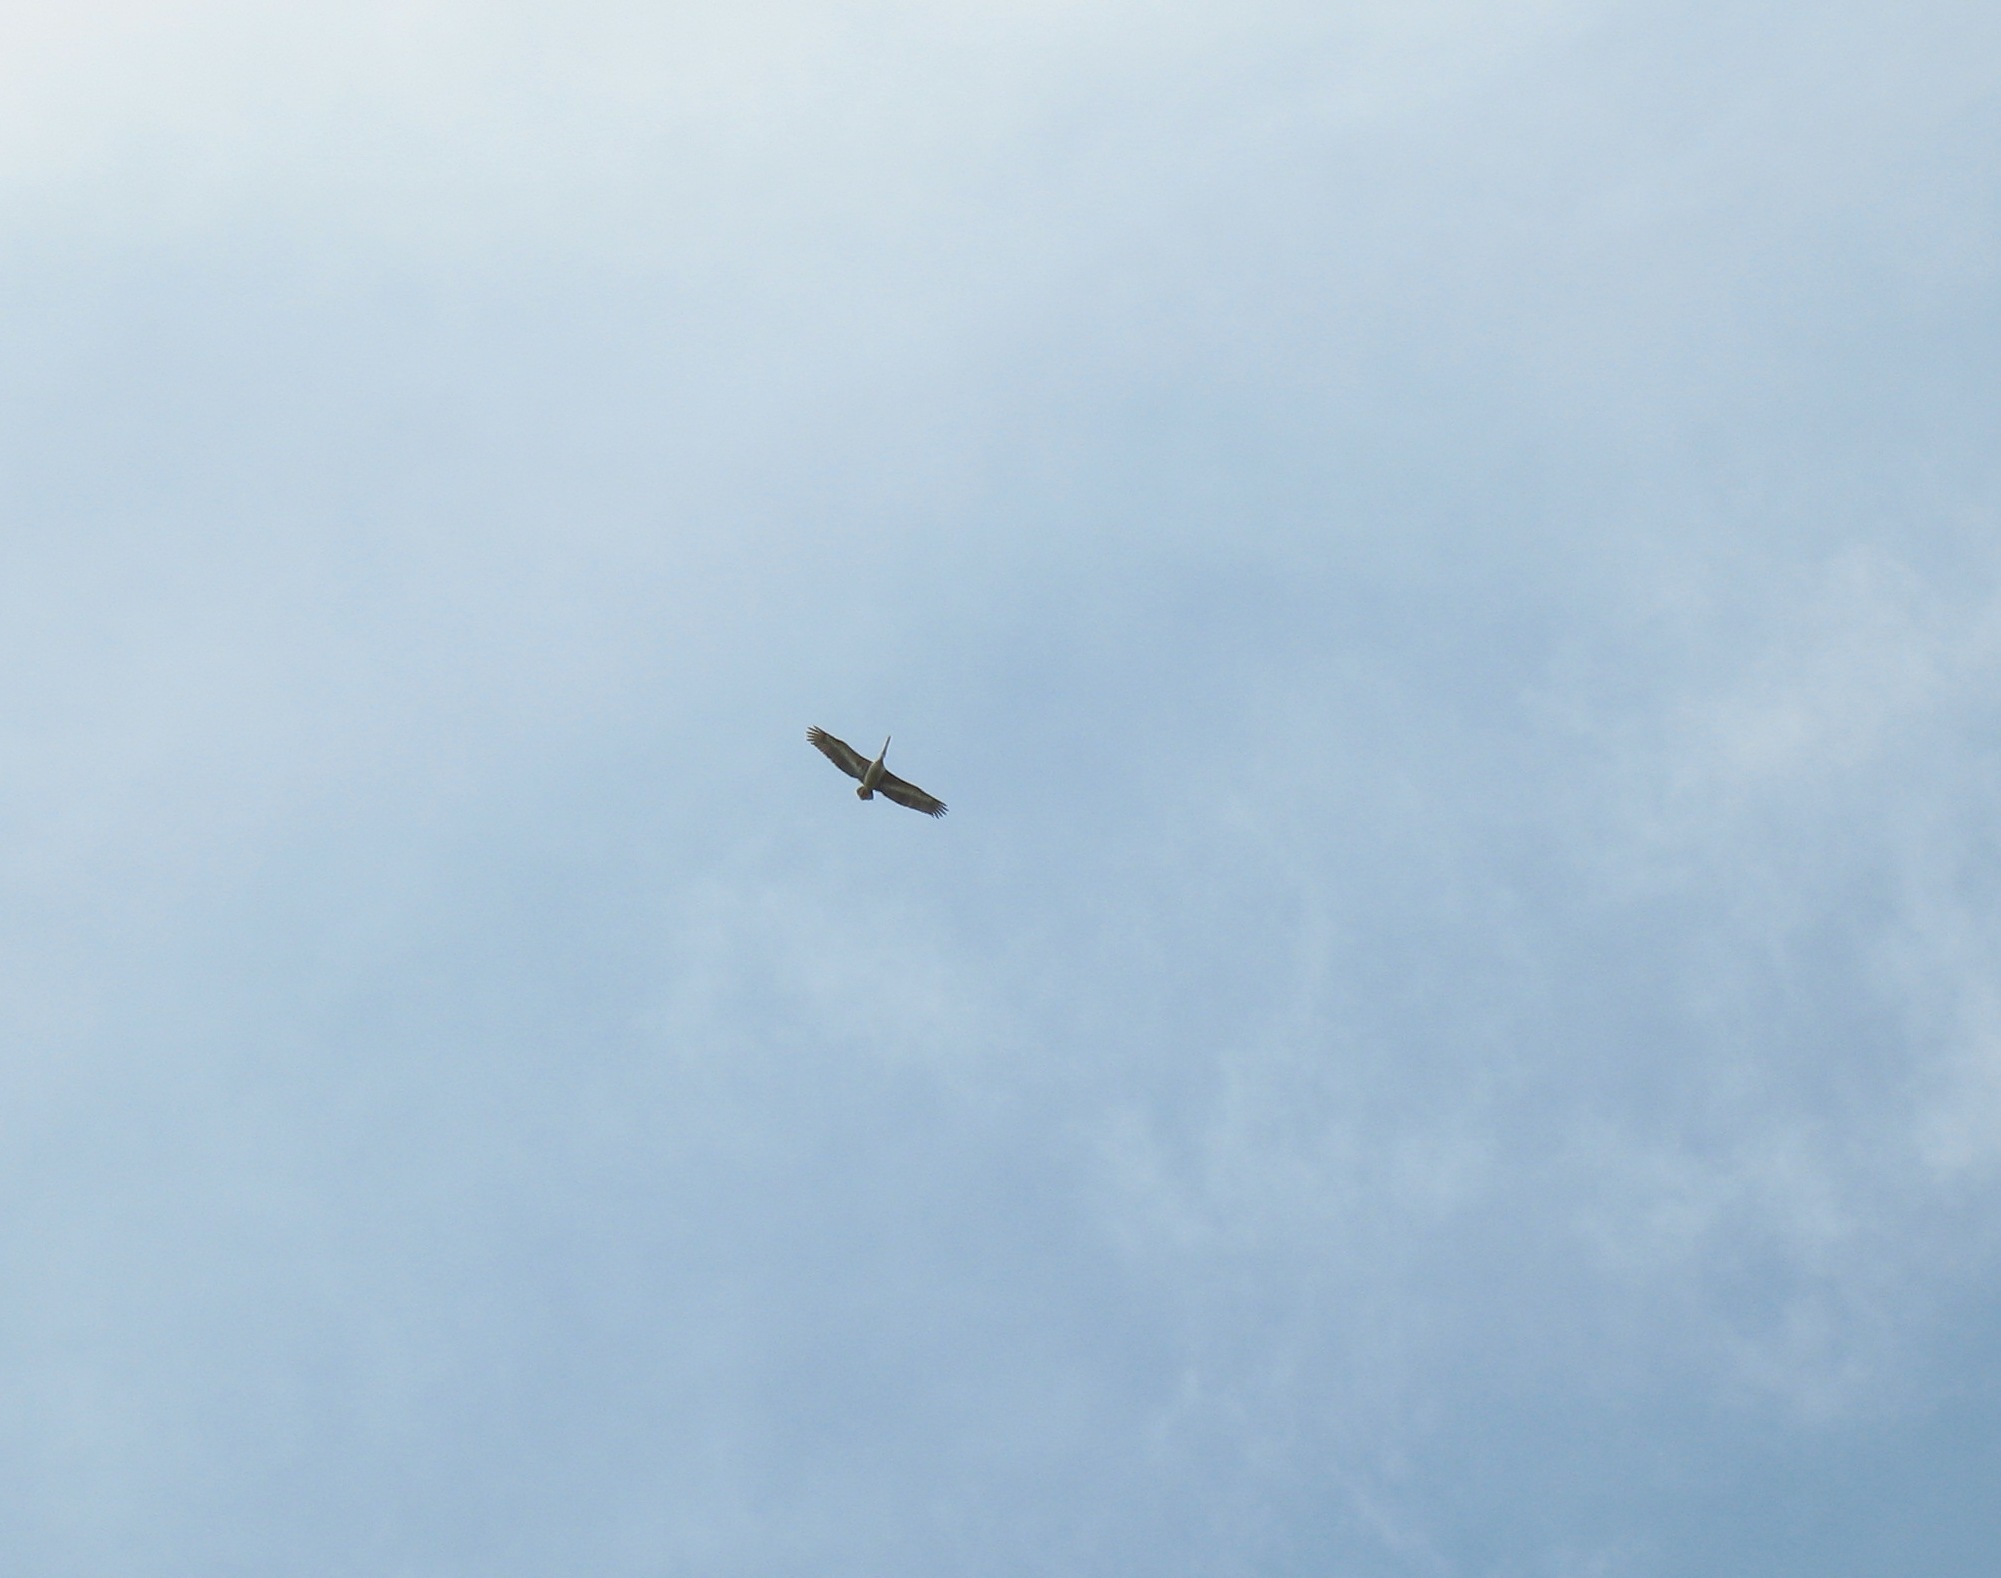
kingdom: Animalia
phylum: Chordata
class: Aves
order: Pelecaniformes
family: Pelecanidae
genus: Pelecanus
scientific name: Pelecanus rufescens
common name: Pink-backed pelican
